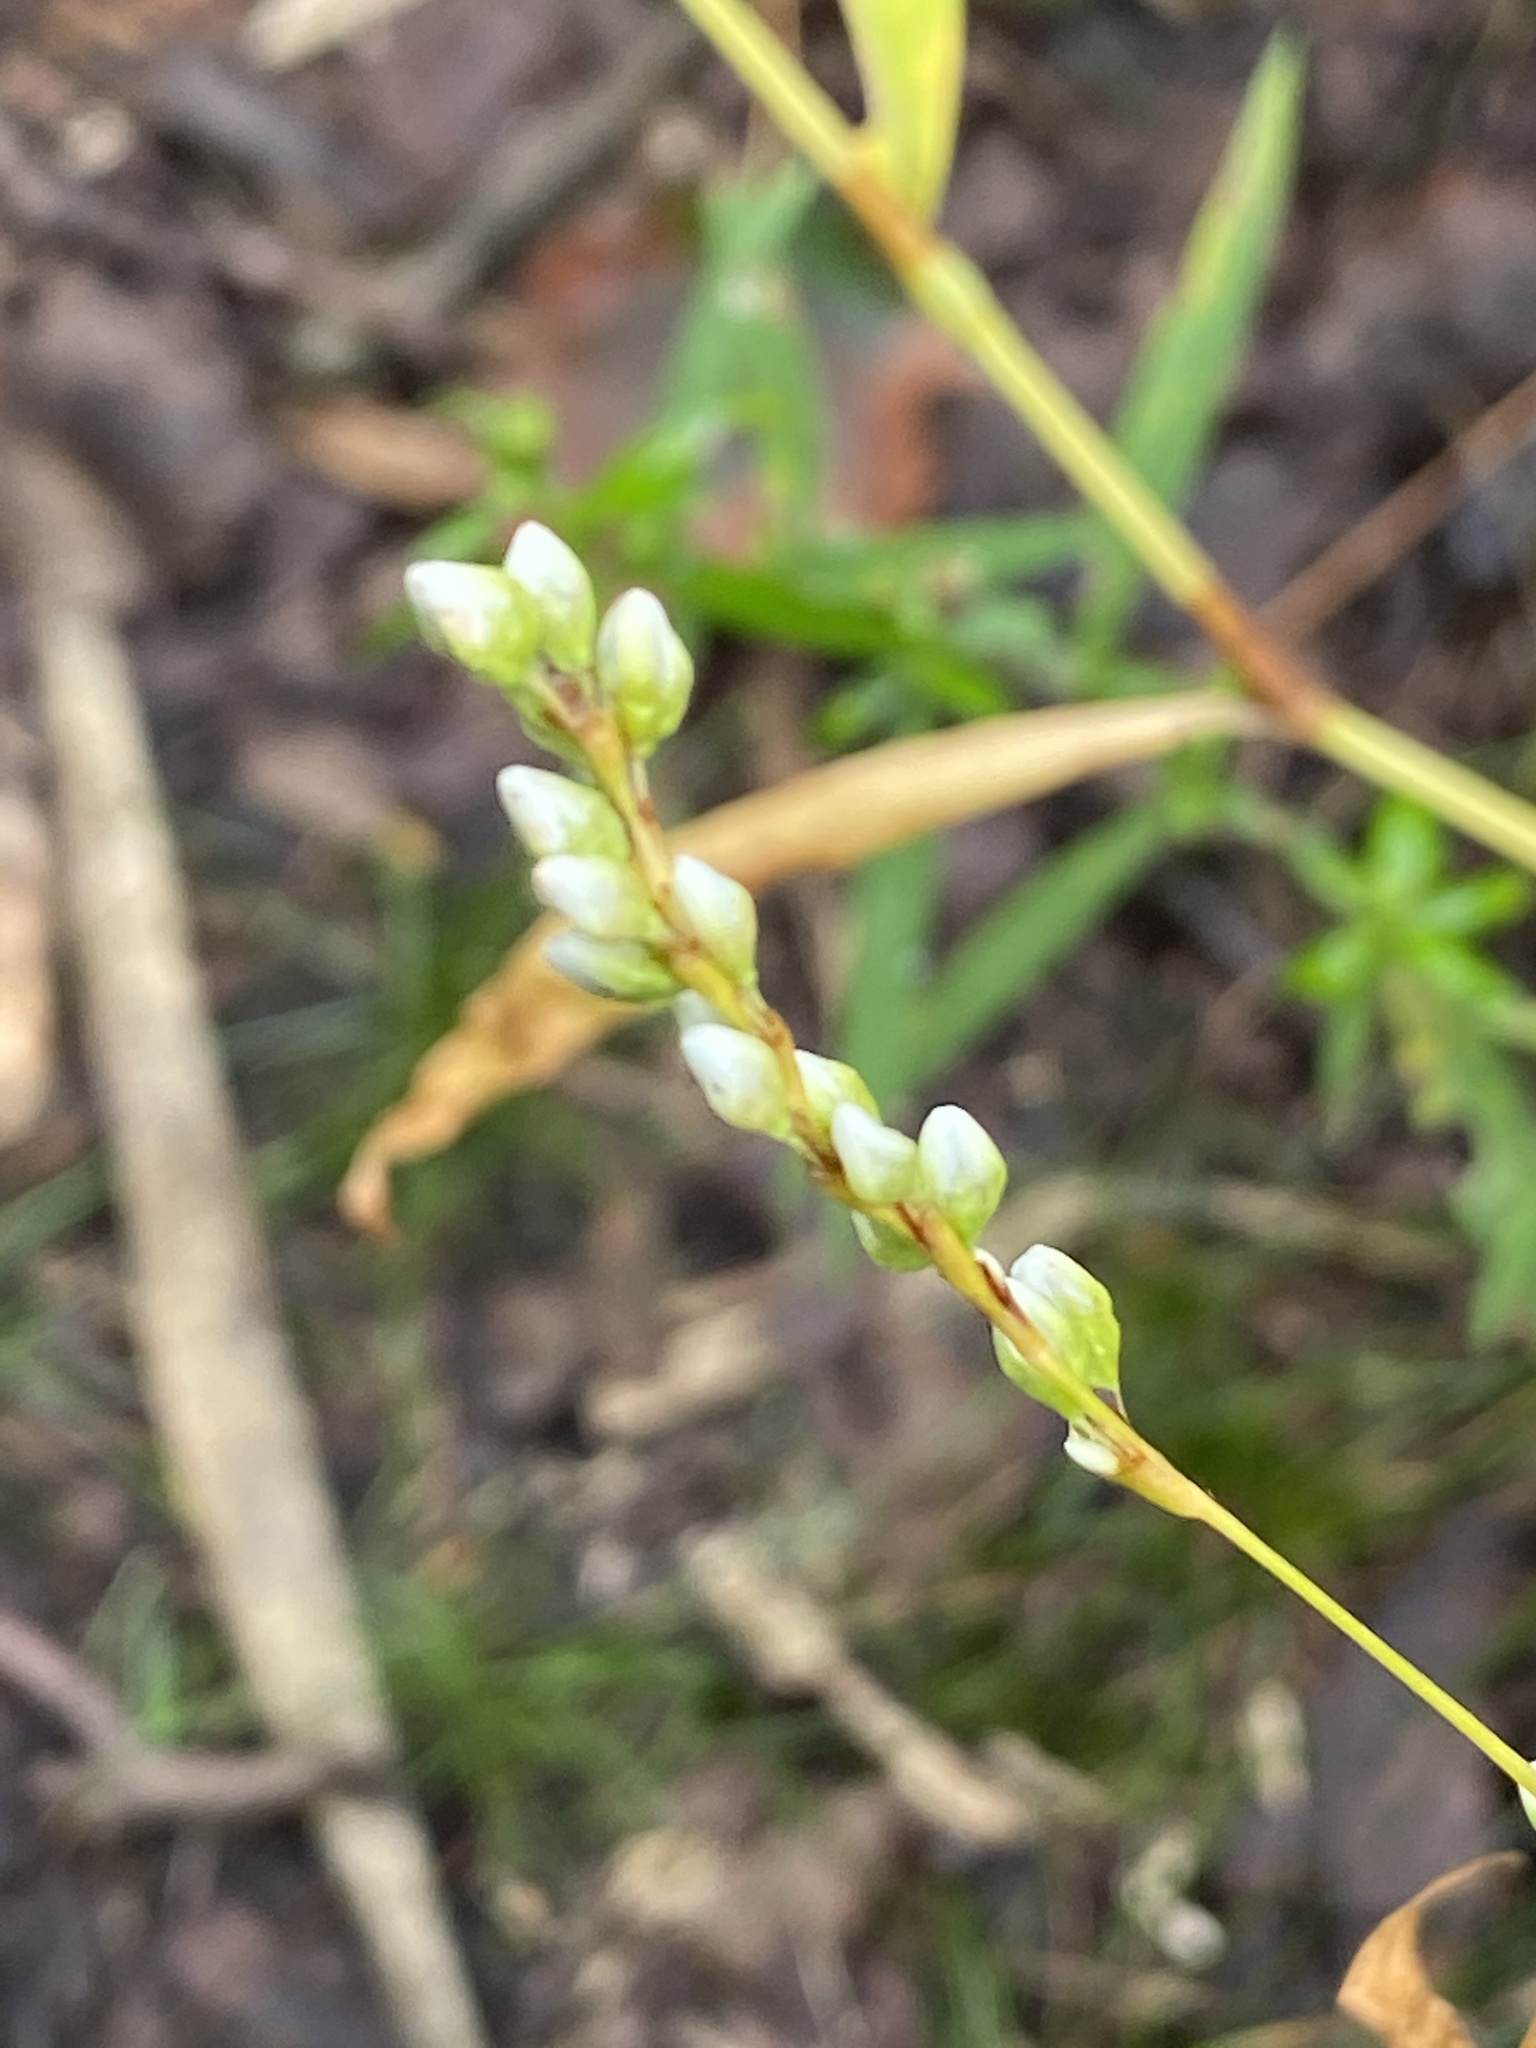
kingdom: Plantae
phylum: Tracheophyta
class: Magnoliopsida
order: Caryophyllales
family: Polygonaceae
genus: Persicaria
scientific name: Persicaria punctata
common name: Dotted smartweed
